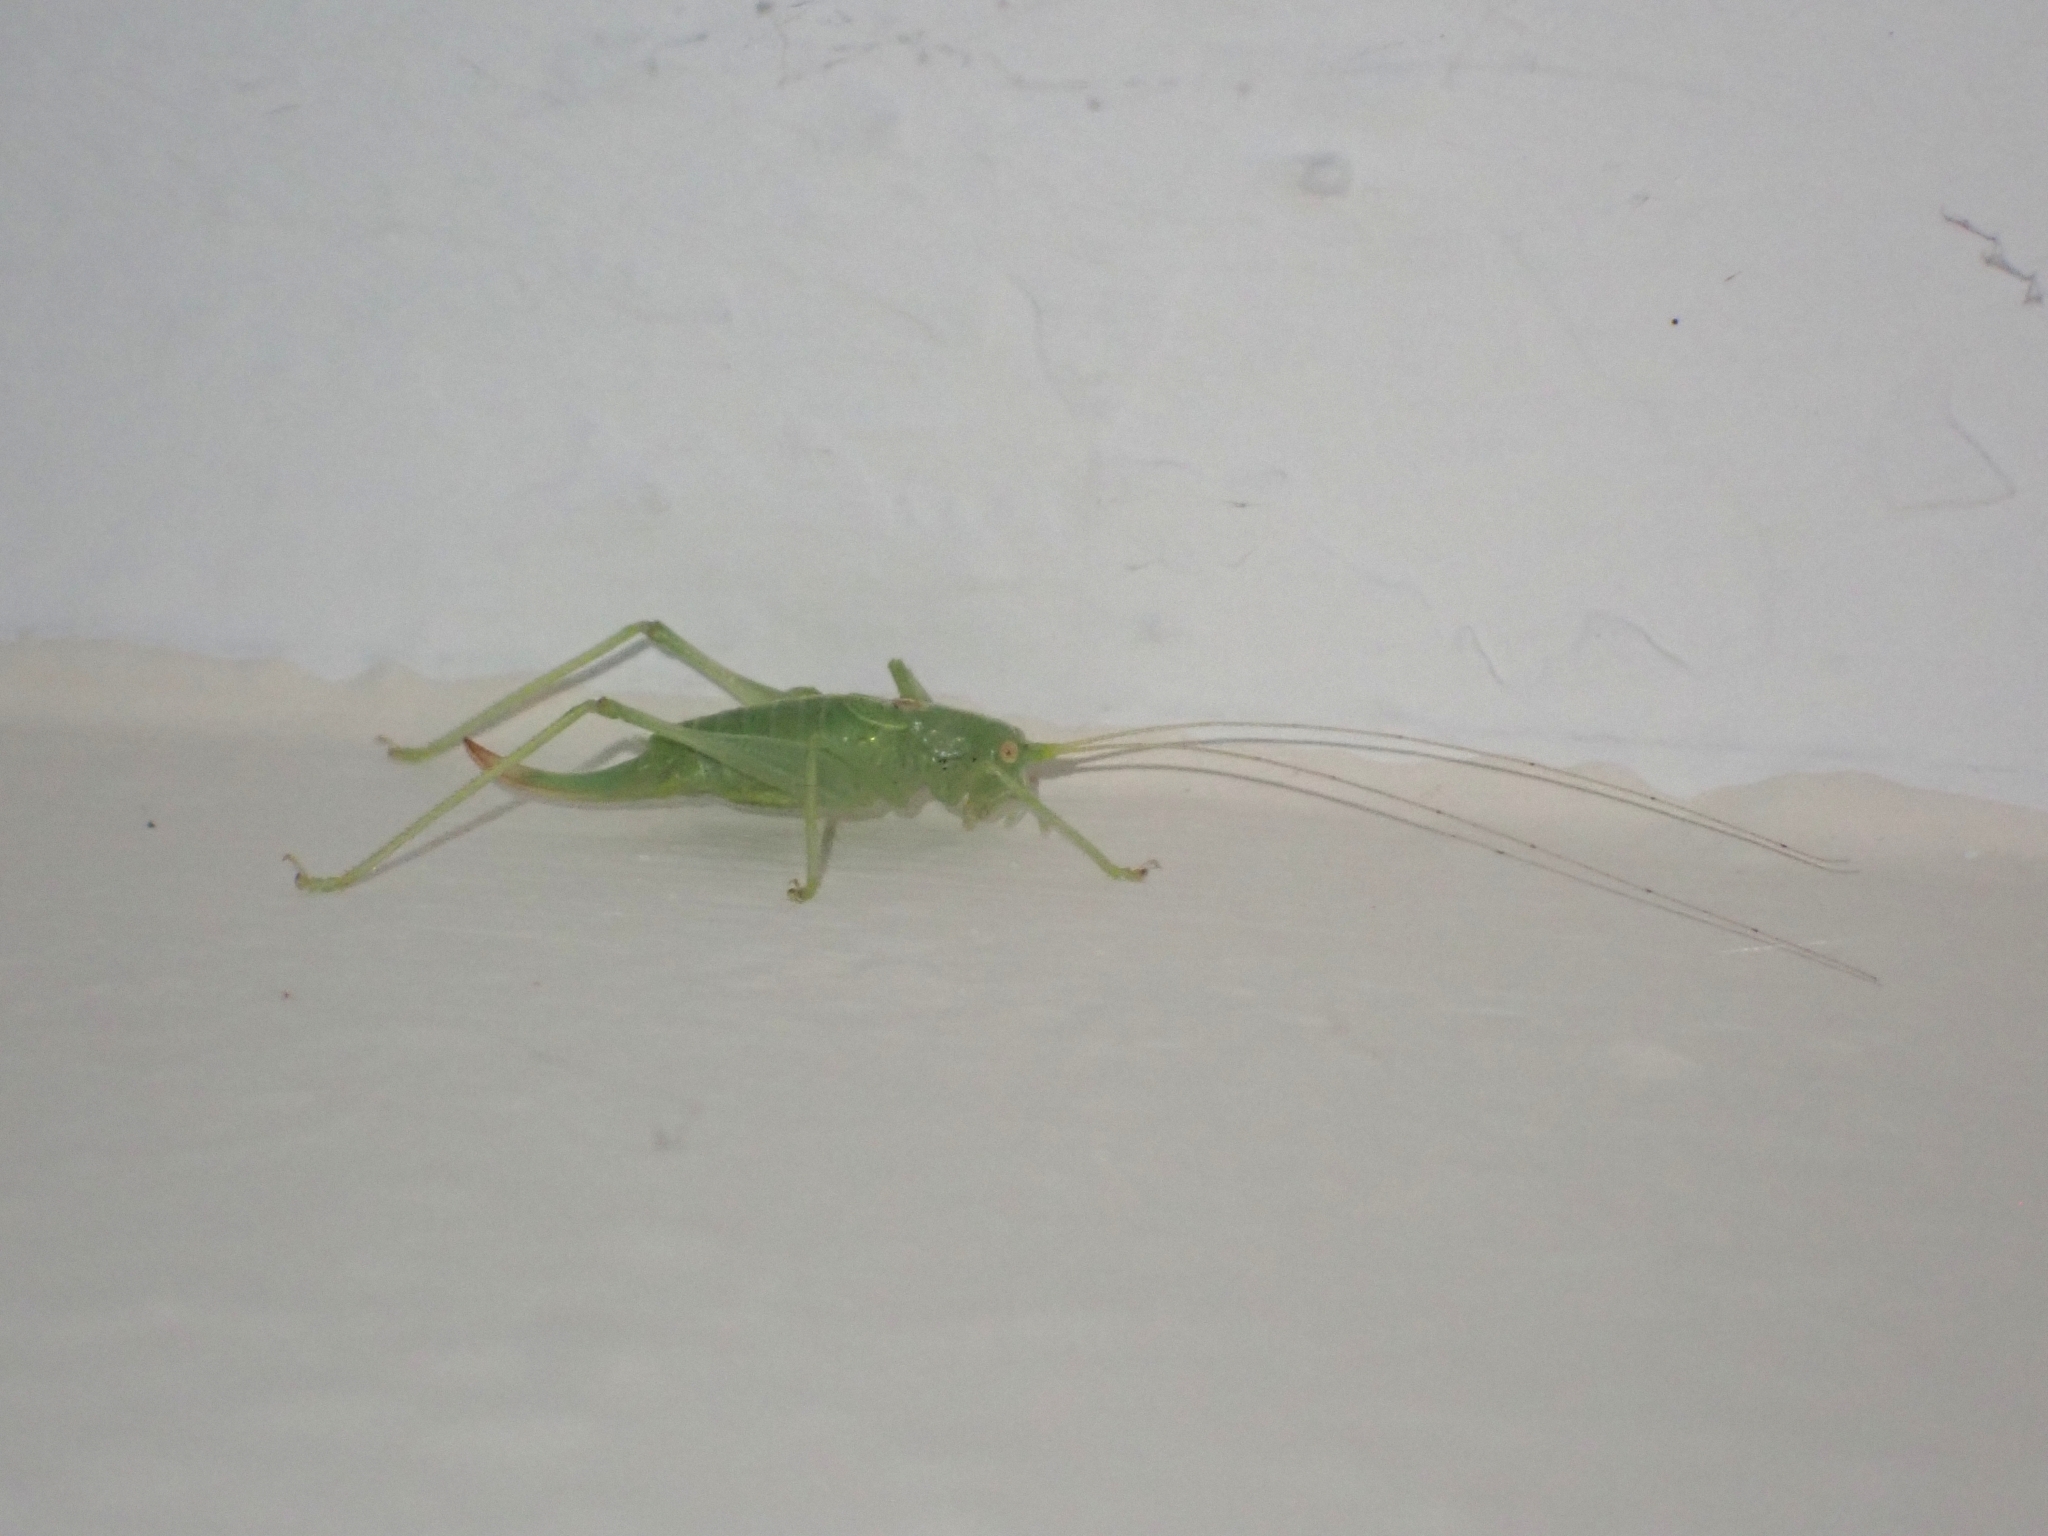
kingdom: Animalia
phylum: Arthropoda
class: Insecta
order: Orthoptera
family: Tettigoniidae
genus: Meconema
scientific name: Meconema meridionale
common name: Southern oak bush-cricket
